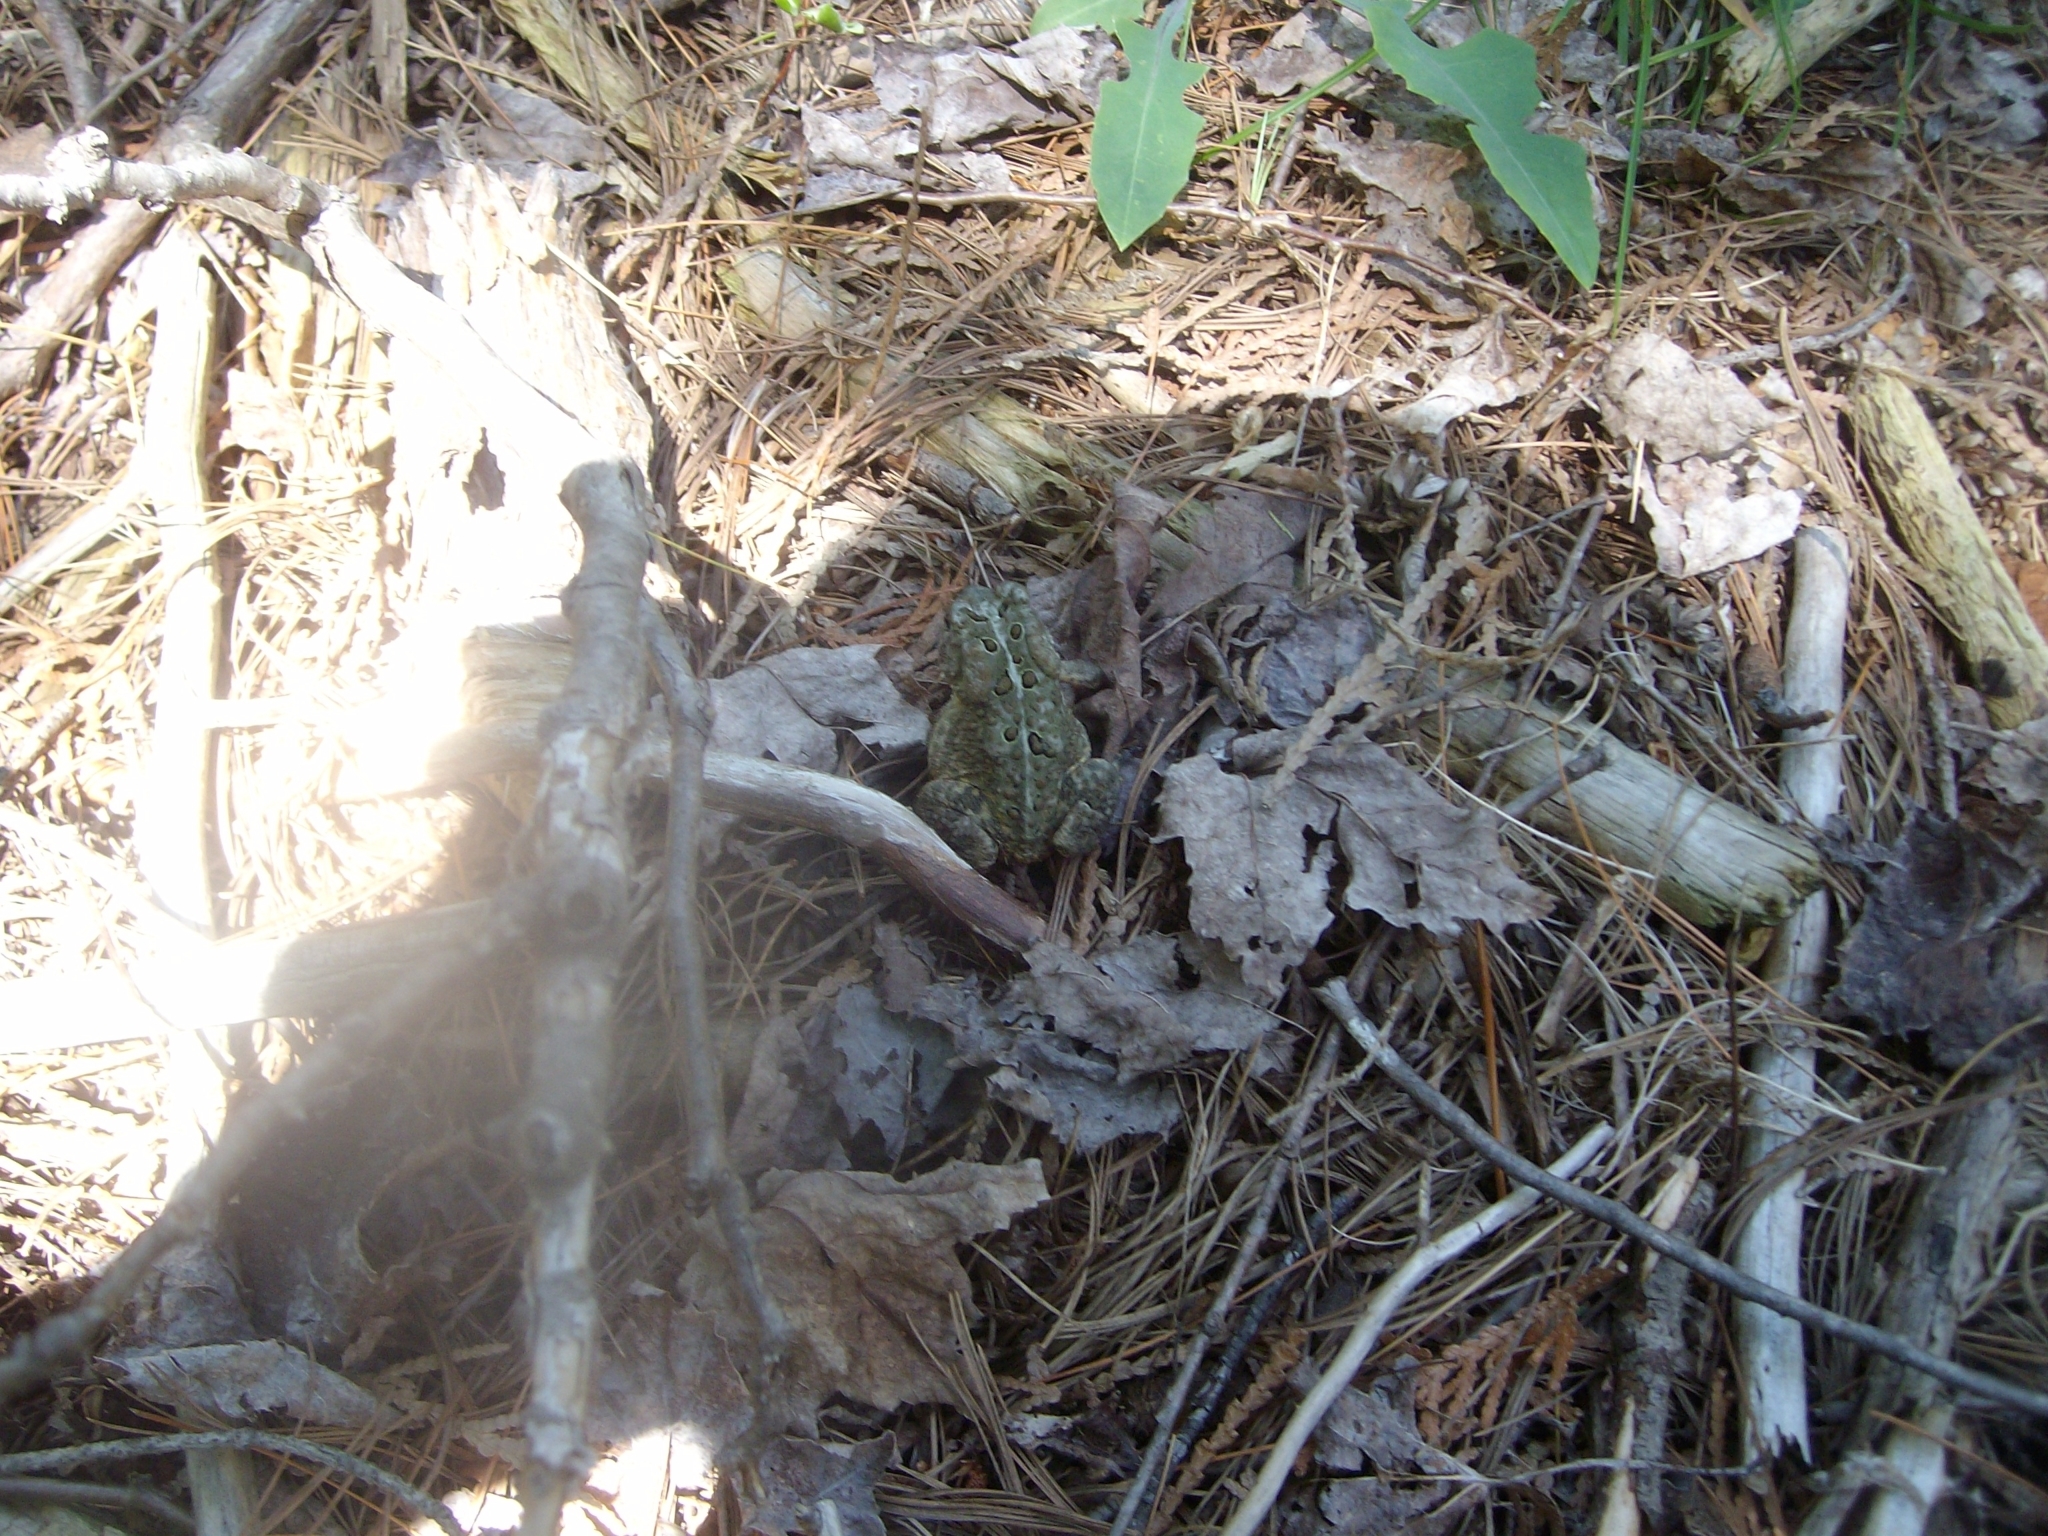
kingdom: Animalia
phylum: Chordata
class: Amphibia
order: Anura
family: Bufonidae
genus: Anaxyrus
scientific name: Anaxyrus americanus
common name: American toad
